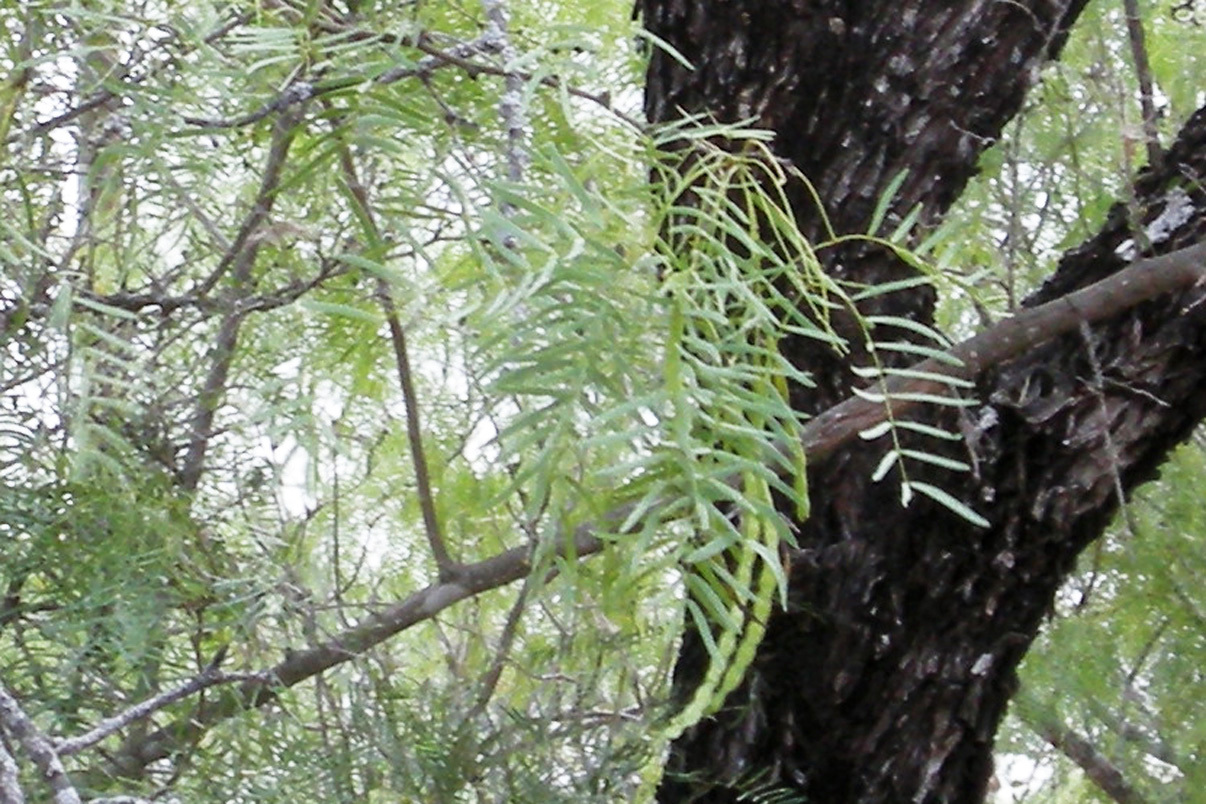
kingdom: Plantae
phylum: Tracheophyta
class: Magnoliopsida
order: Fabales
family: Fabaceae
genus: Prosopis
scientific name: Prosopis glandulosa
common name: Honey mesquite
